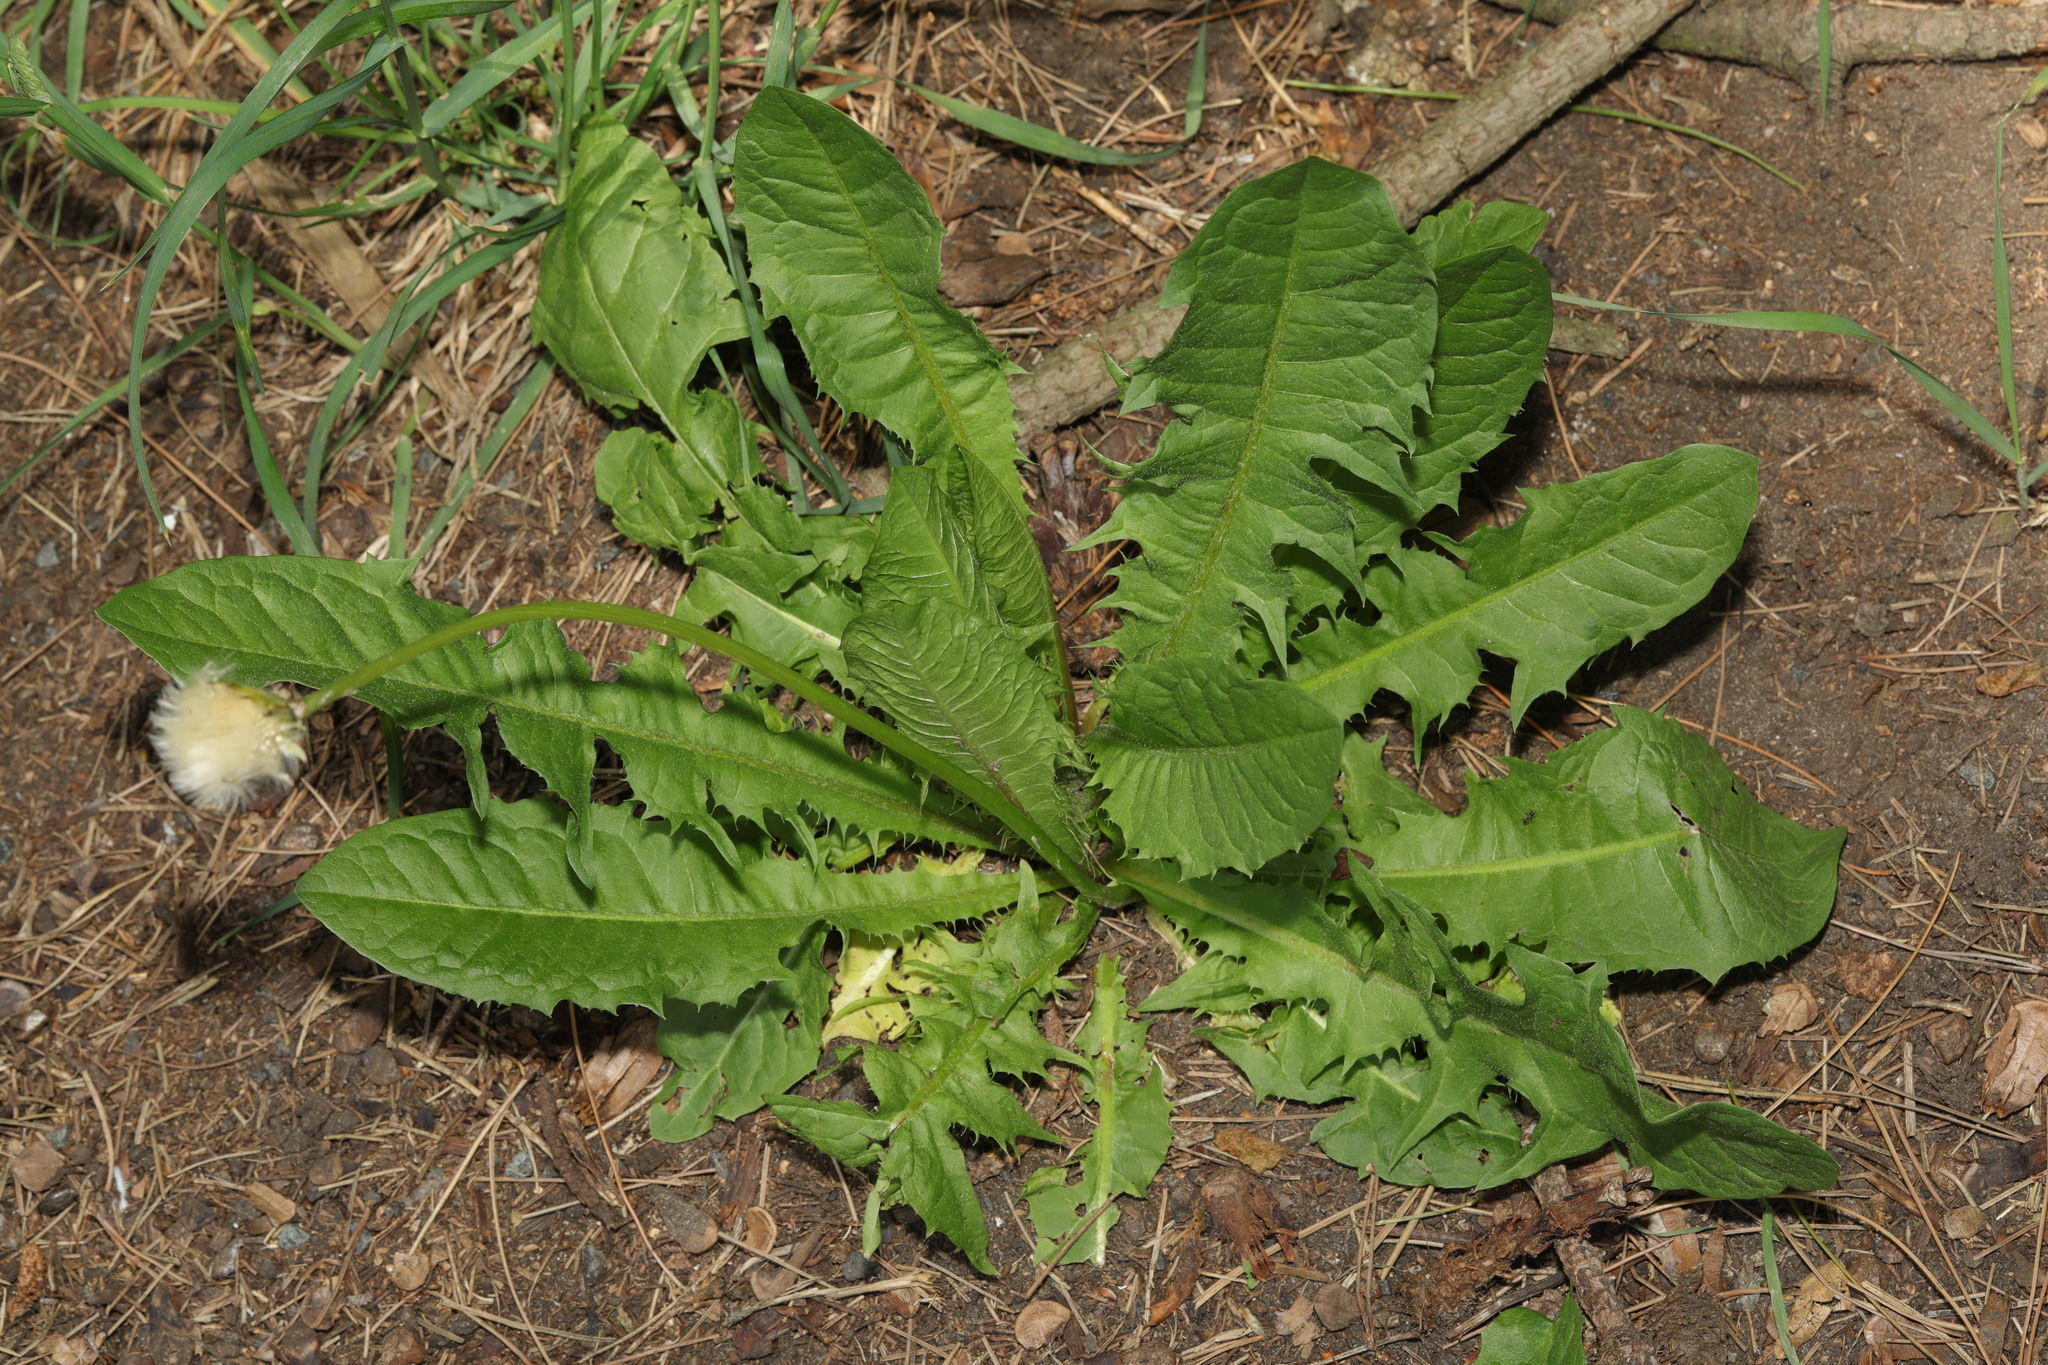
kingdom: Plantae
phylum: Tracheophyta
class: Magnoliopsida
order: Asterales
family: Asteraceae
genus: Taraxacum
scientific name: Taraxacum officinale
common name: Common dandelion
